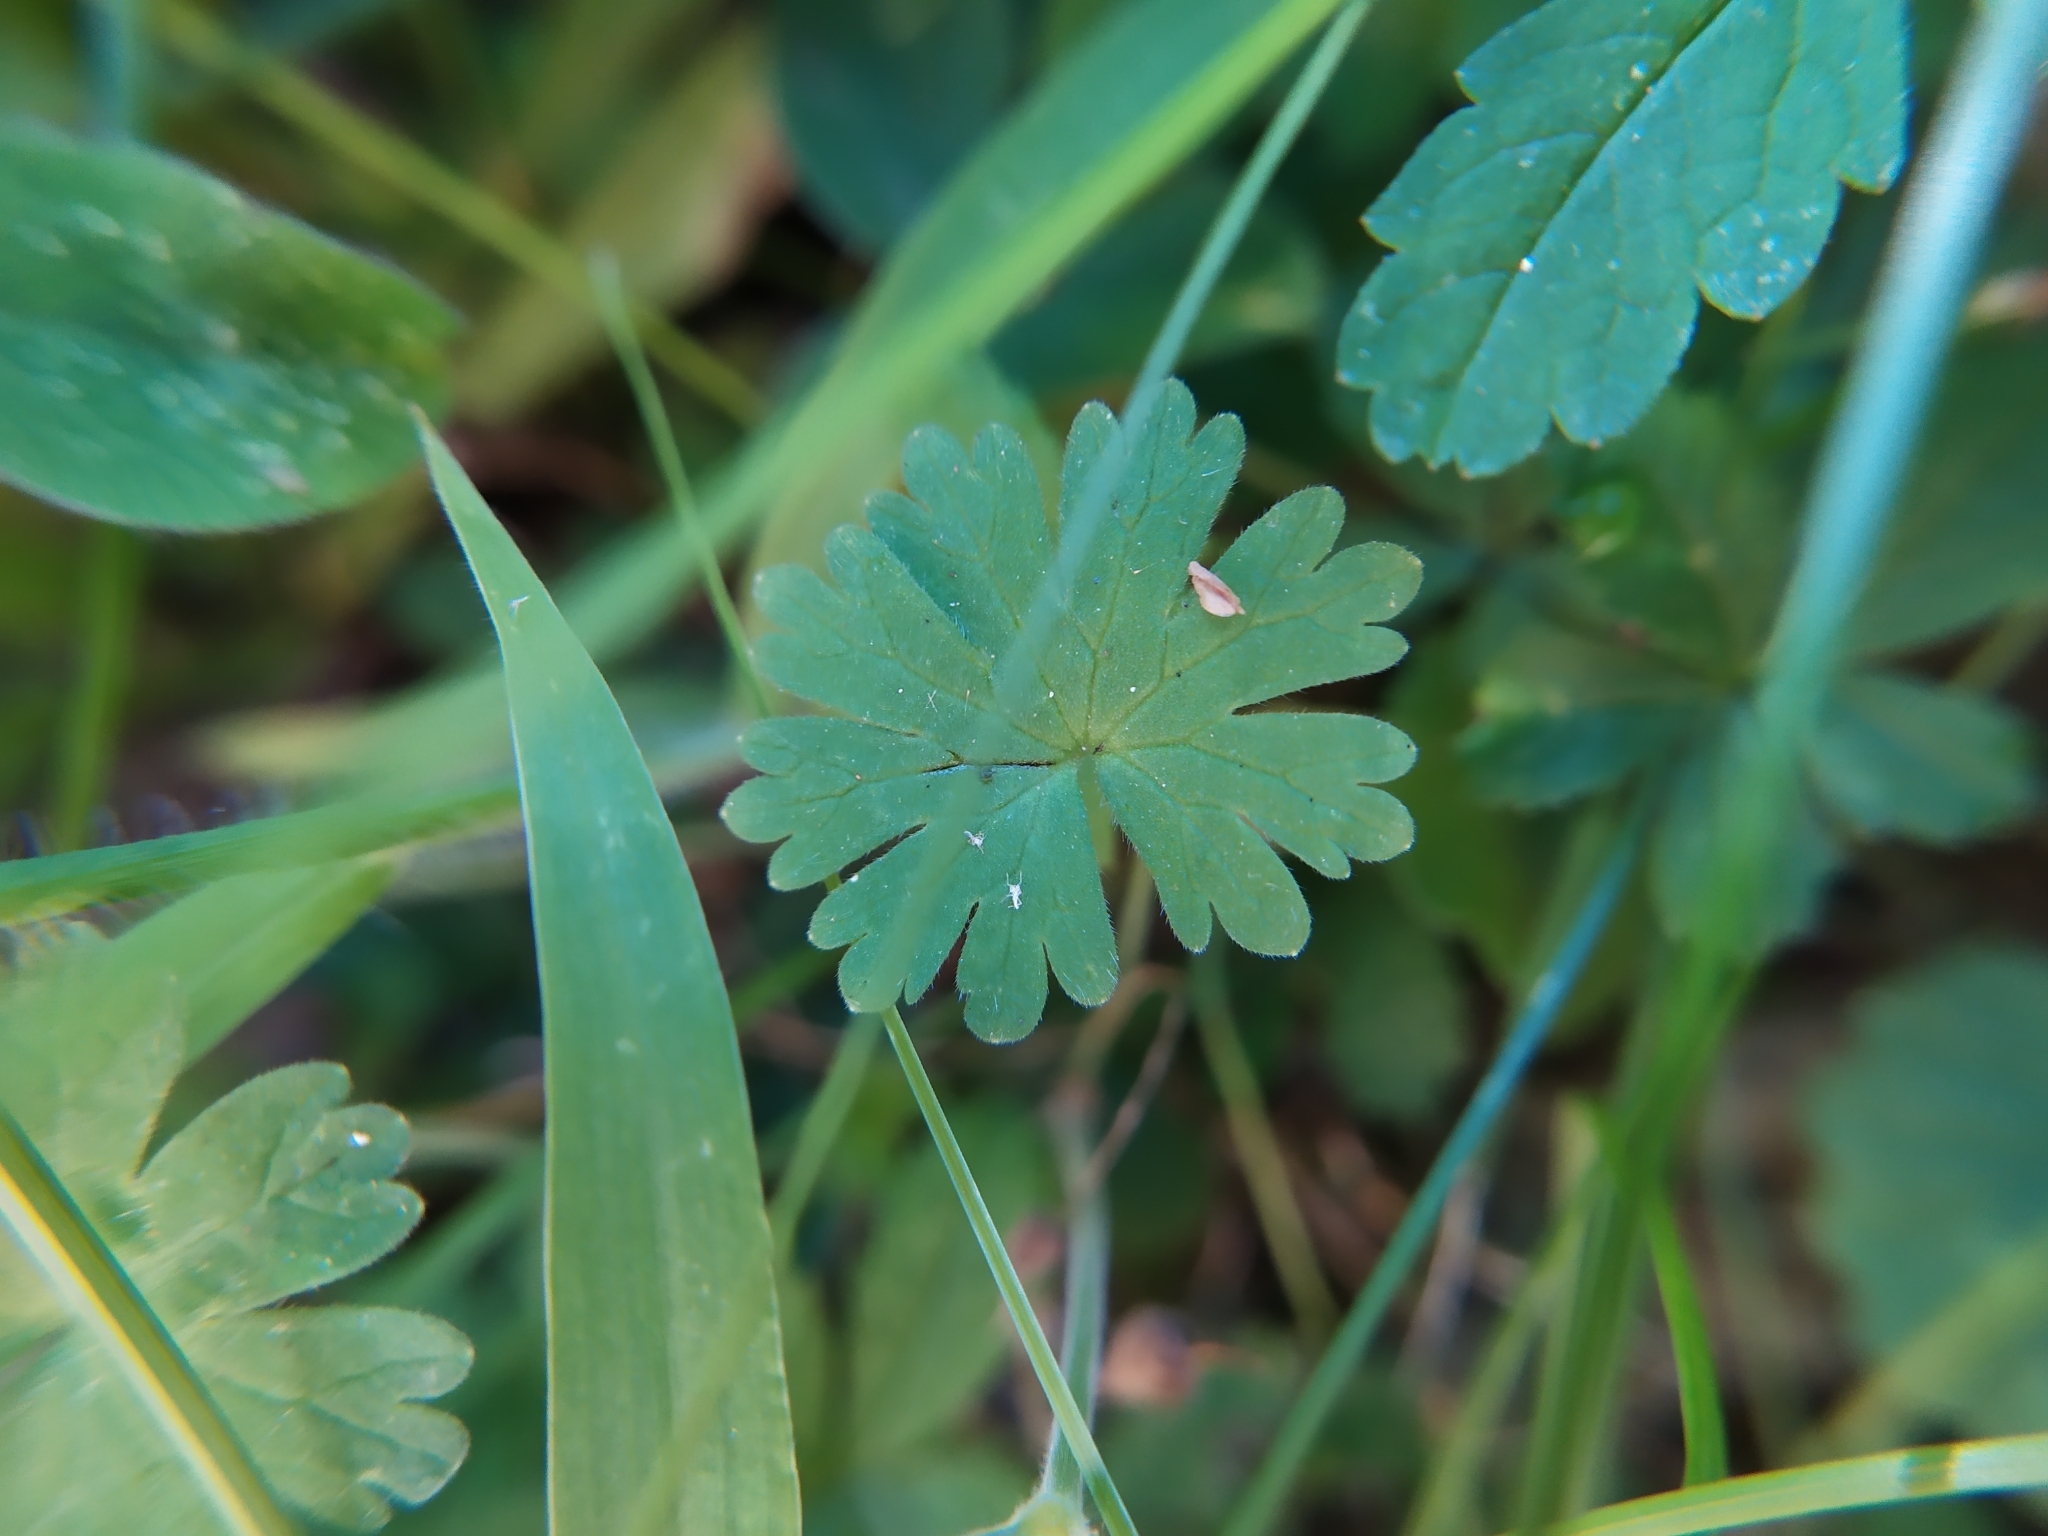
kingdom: Plantae
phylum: Tracheophyta
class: Magnoliopsida
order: Geraniales
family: Geraniaceae
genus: Geranium
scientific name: Geranium molle
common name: Dove's-foot crane's-bill
